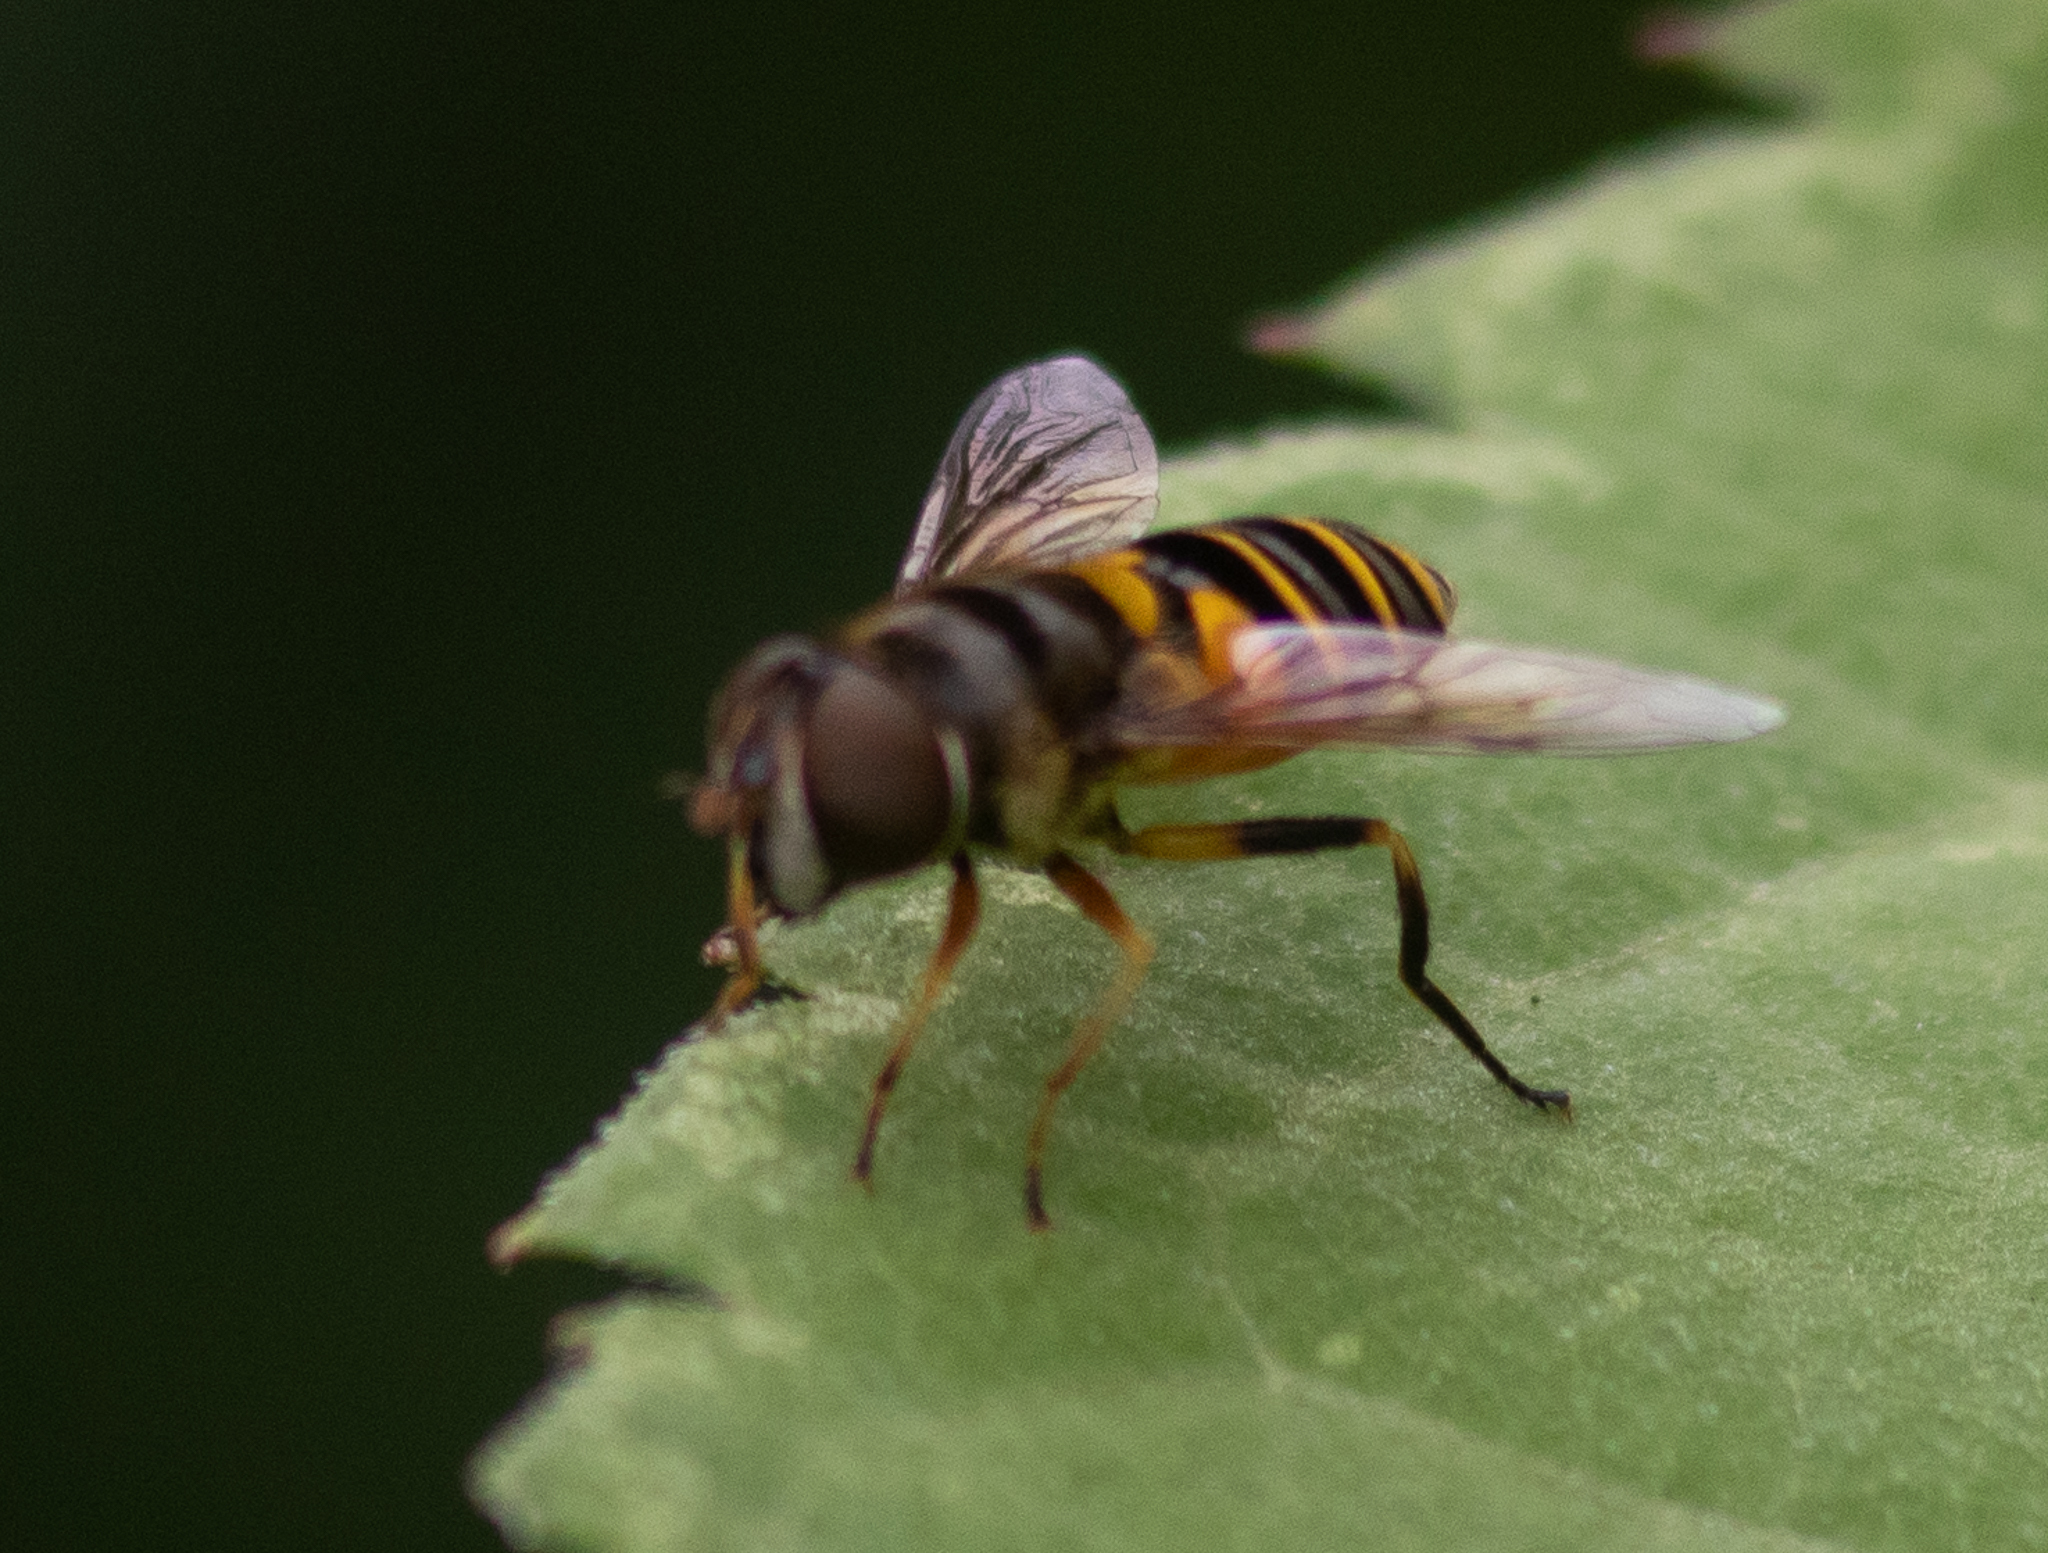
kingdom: Animalia
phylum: Arthropoda
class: Insecta
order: Diptera
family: Syrphidae
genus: Eristalis
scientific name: Eristalis transversa
